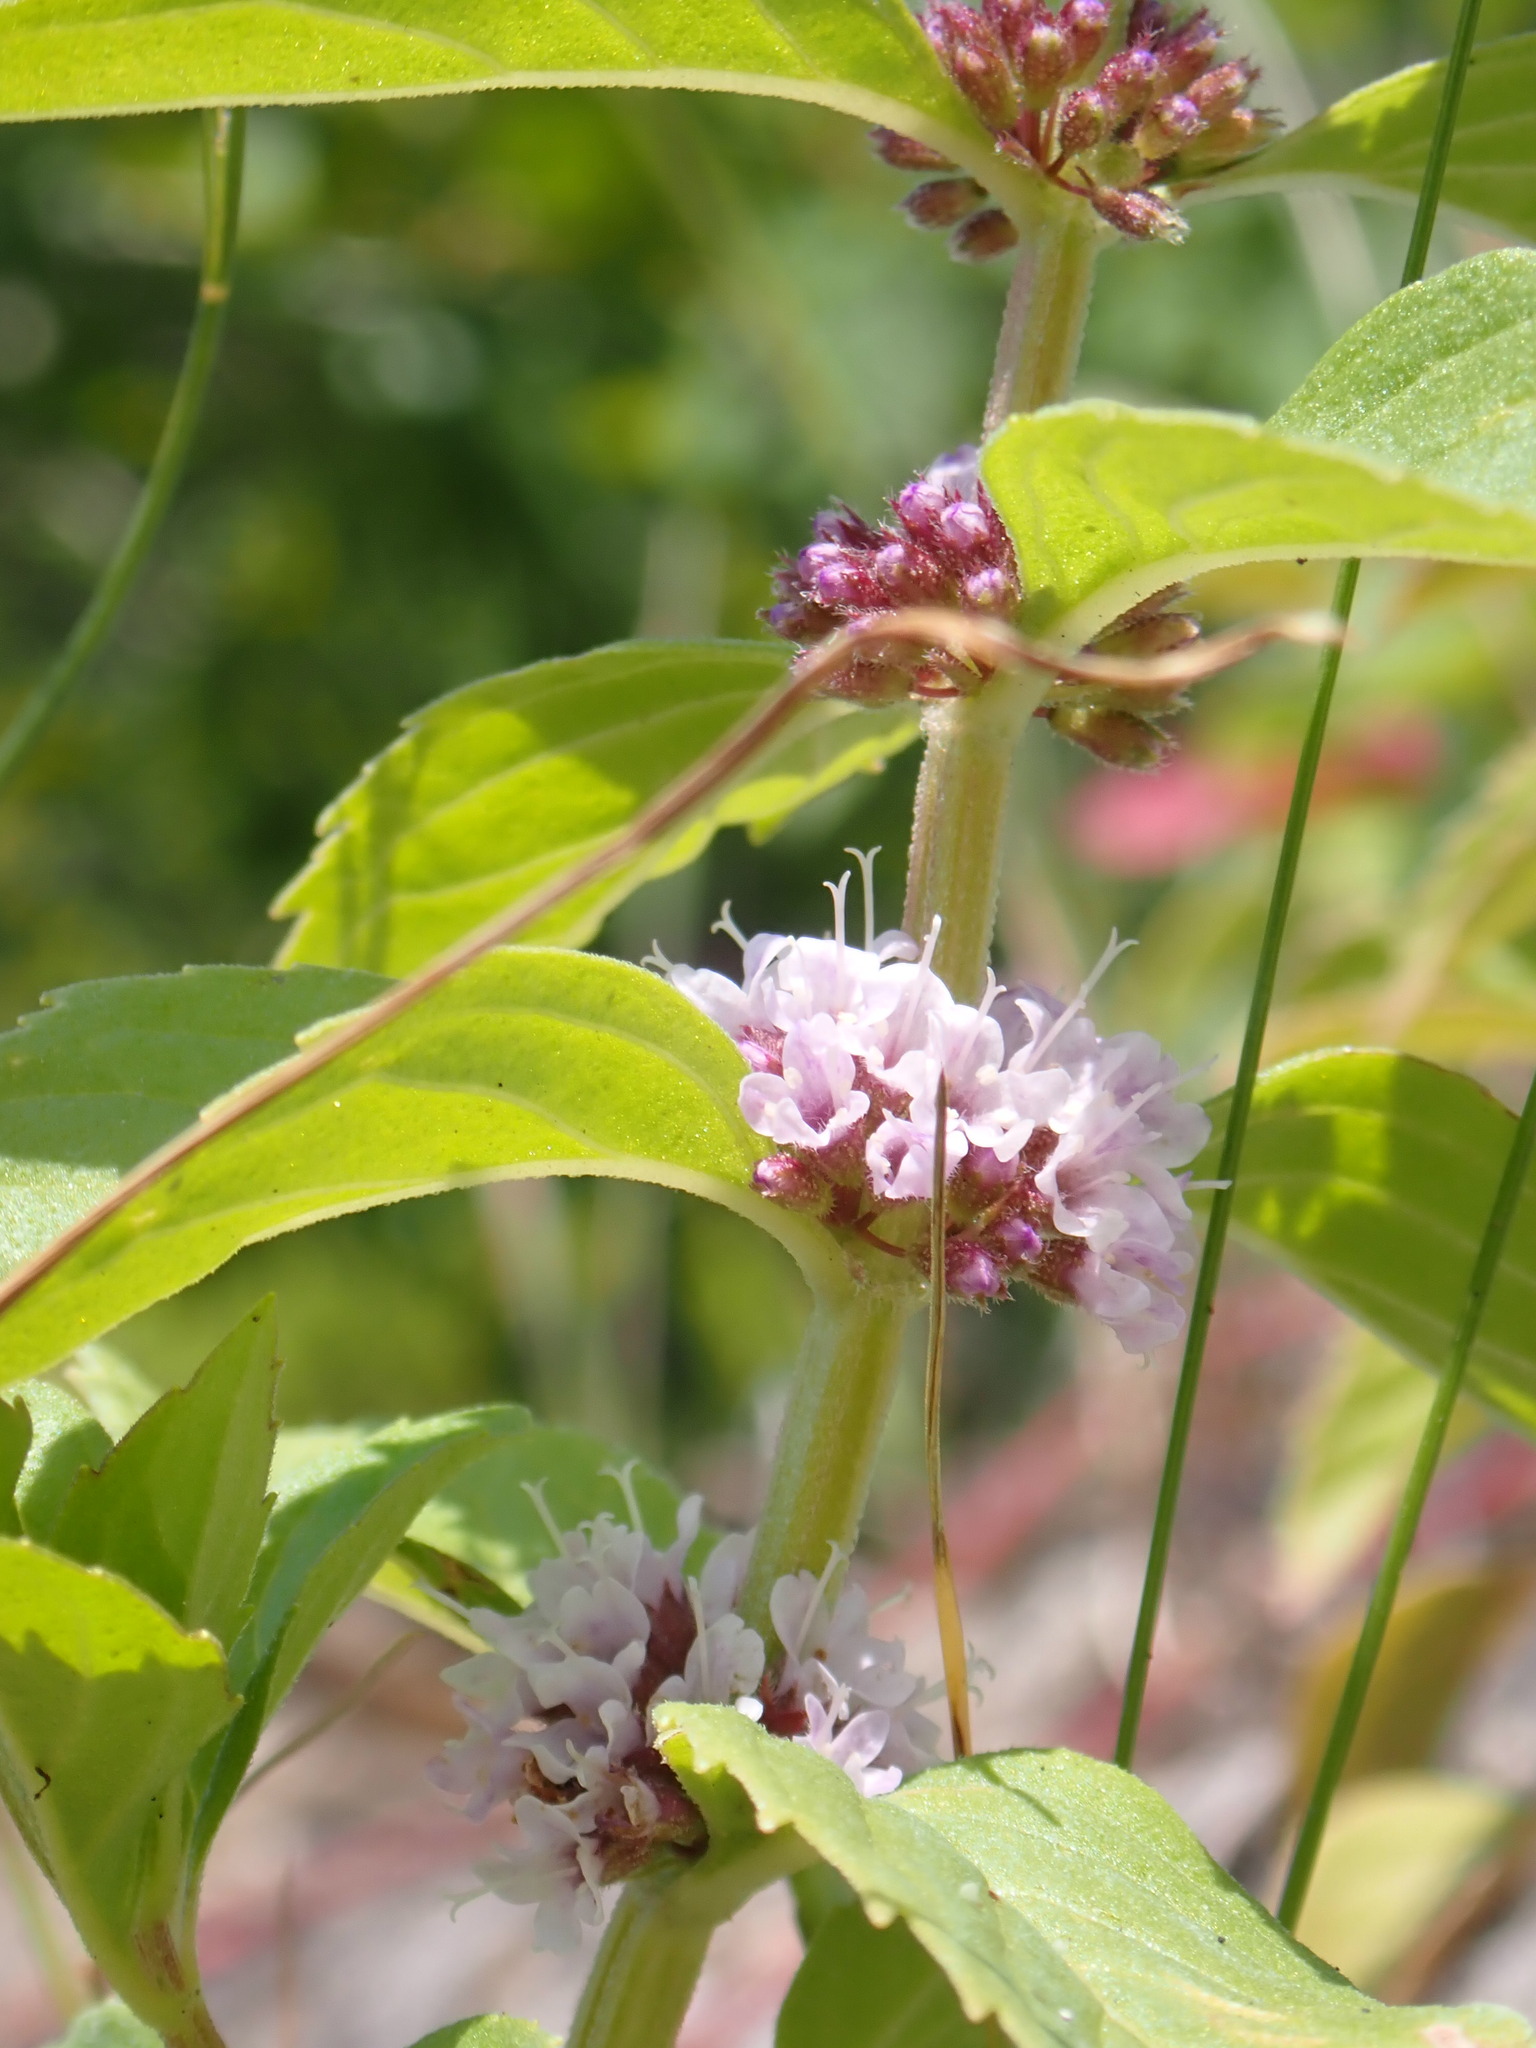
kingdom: Plantae
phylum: Tracheophyta
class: Magnoliopsida
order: Lamiales
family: Lamiaceae
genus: Mentha
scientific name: Mentha canadensis
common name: American corn mint
